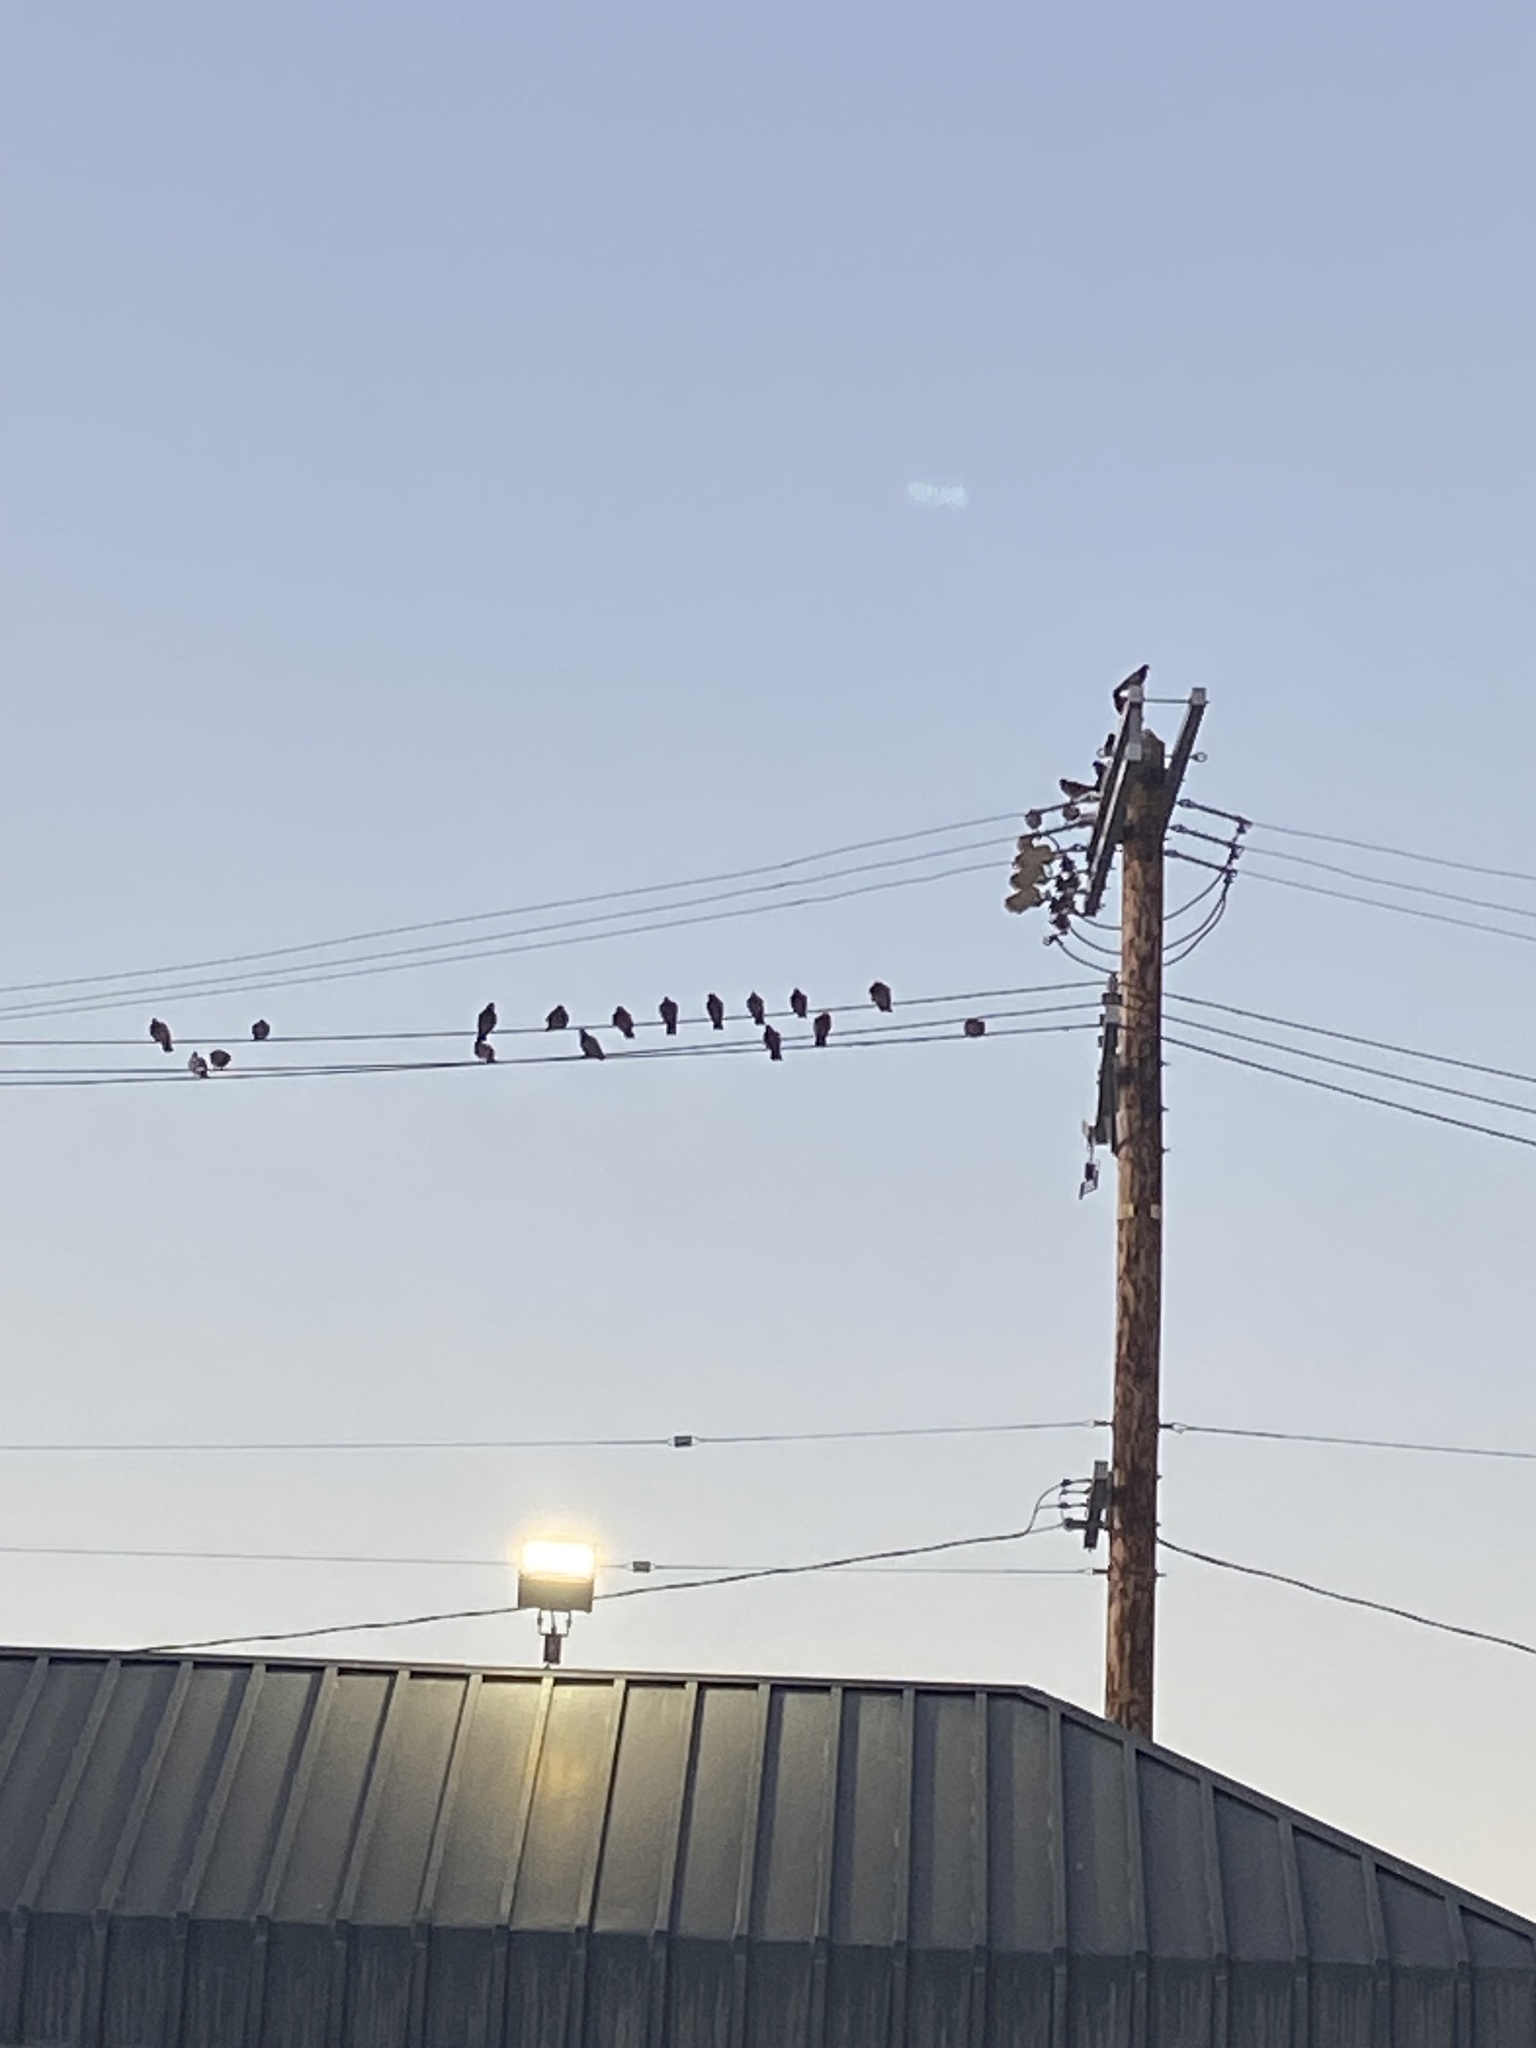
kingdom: Animalia
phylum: Chordata
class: Aves
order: Columbiformes
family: Columbidae
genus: Columba
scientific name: Columba livia
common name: Rock pigeon
